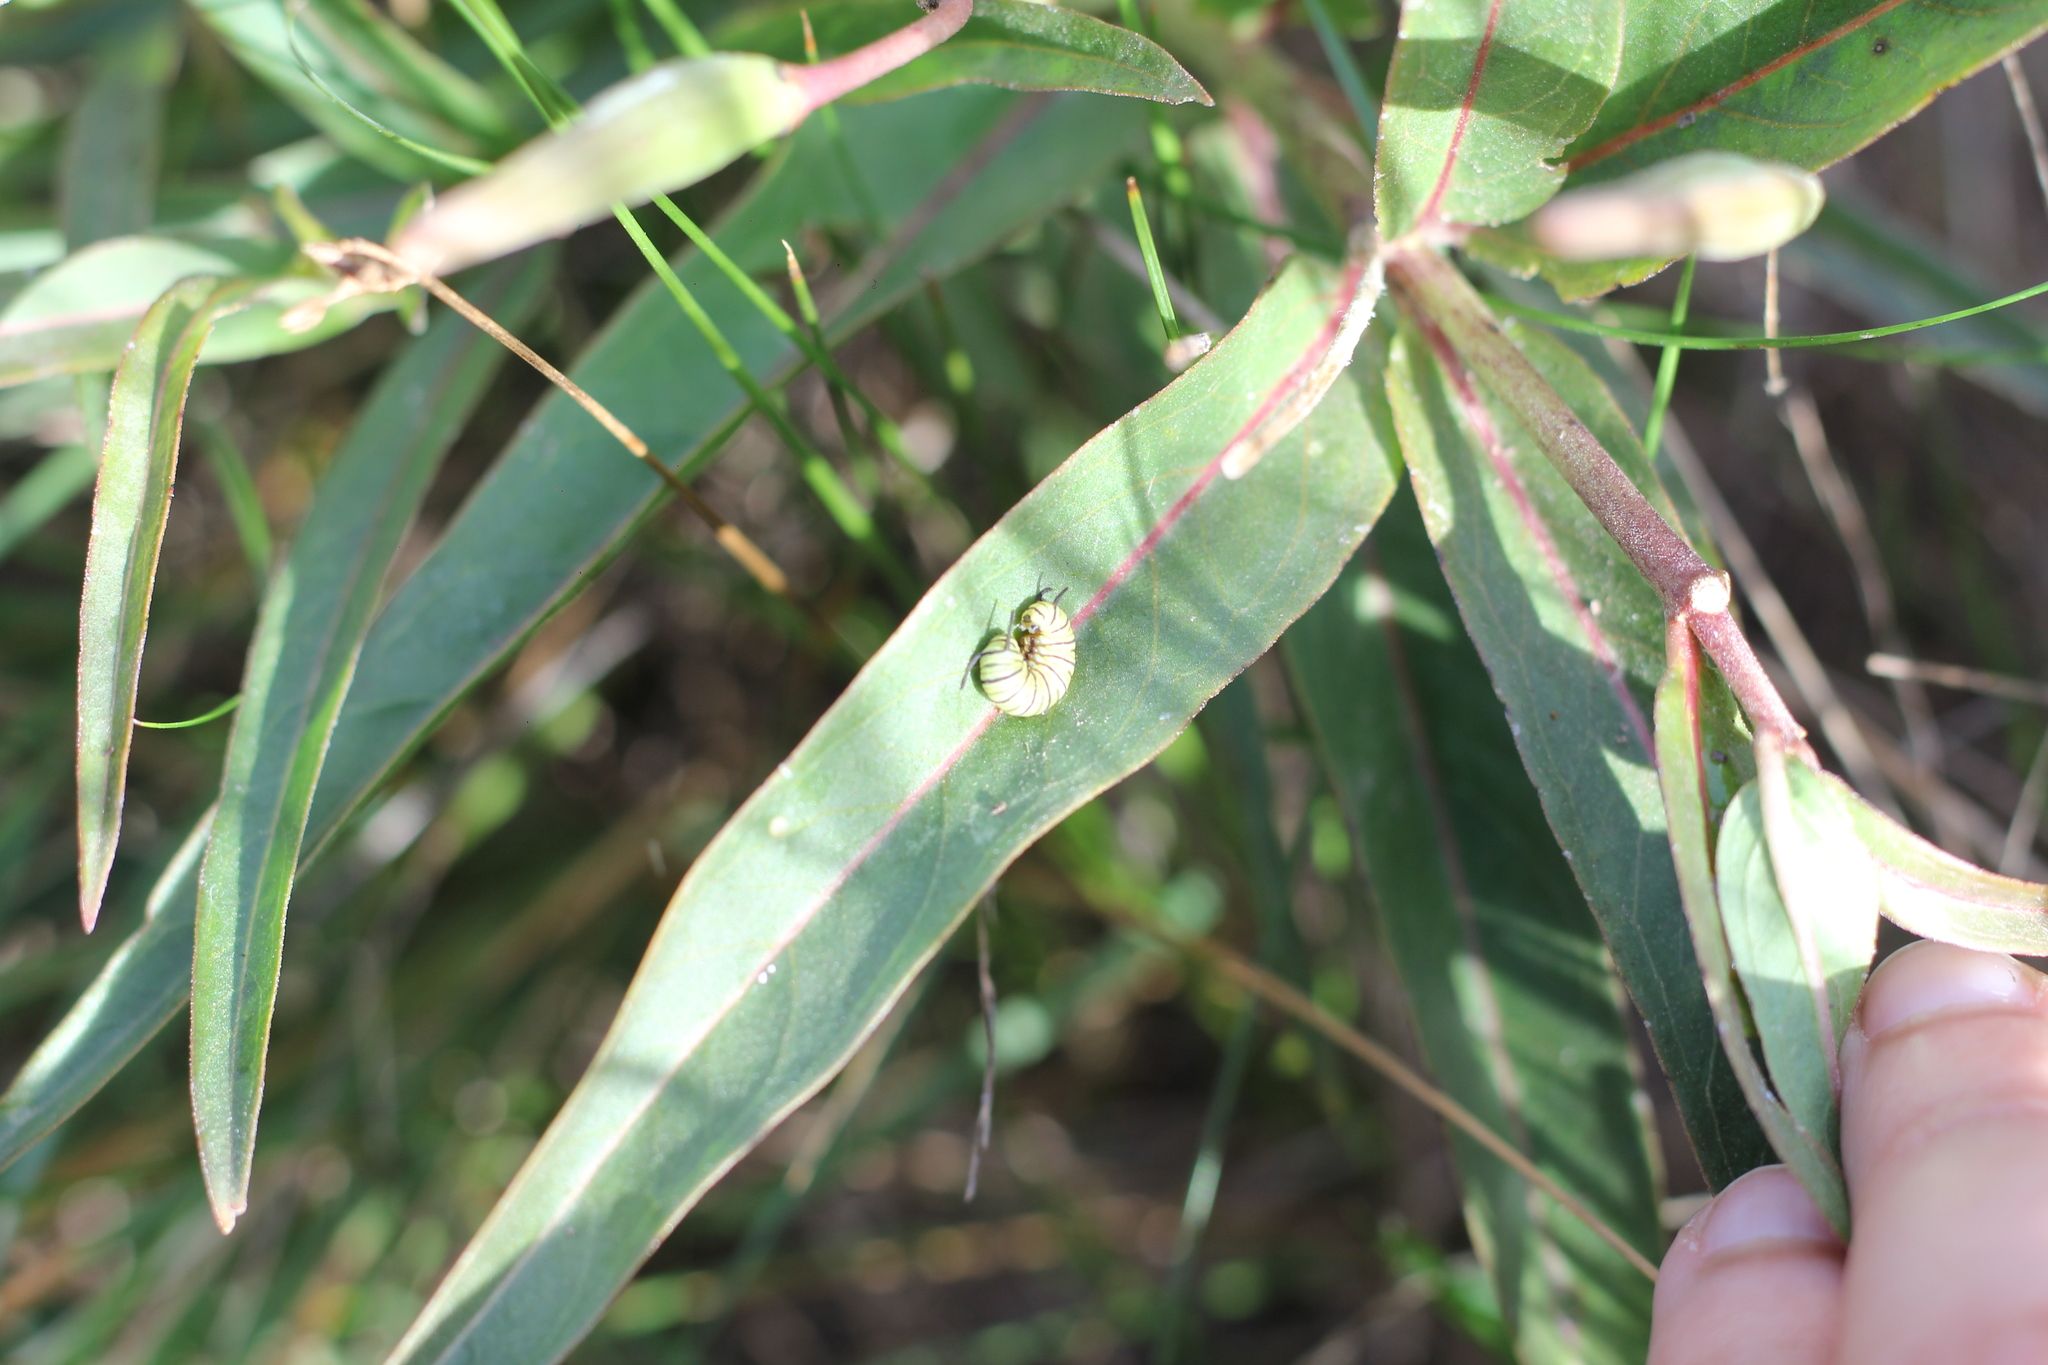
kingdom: Animalia
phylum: Arthropoda
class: Insecta
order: Lepidoptera
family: Nymphalidae
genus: Danaus
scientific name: Danaus erippus
